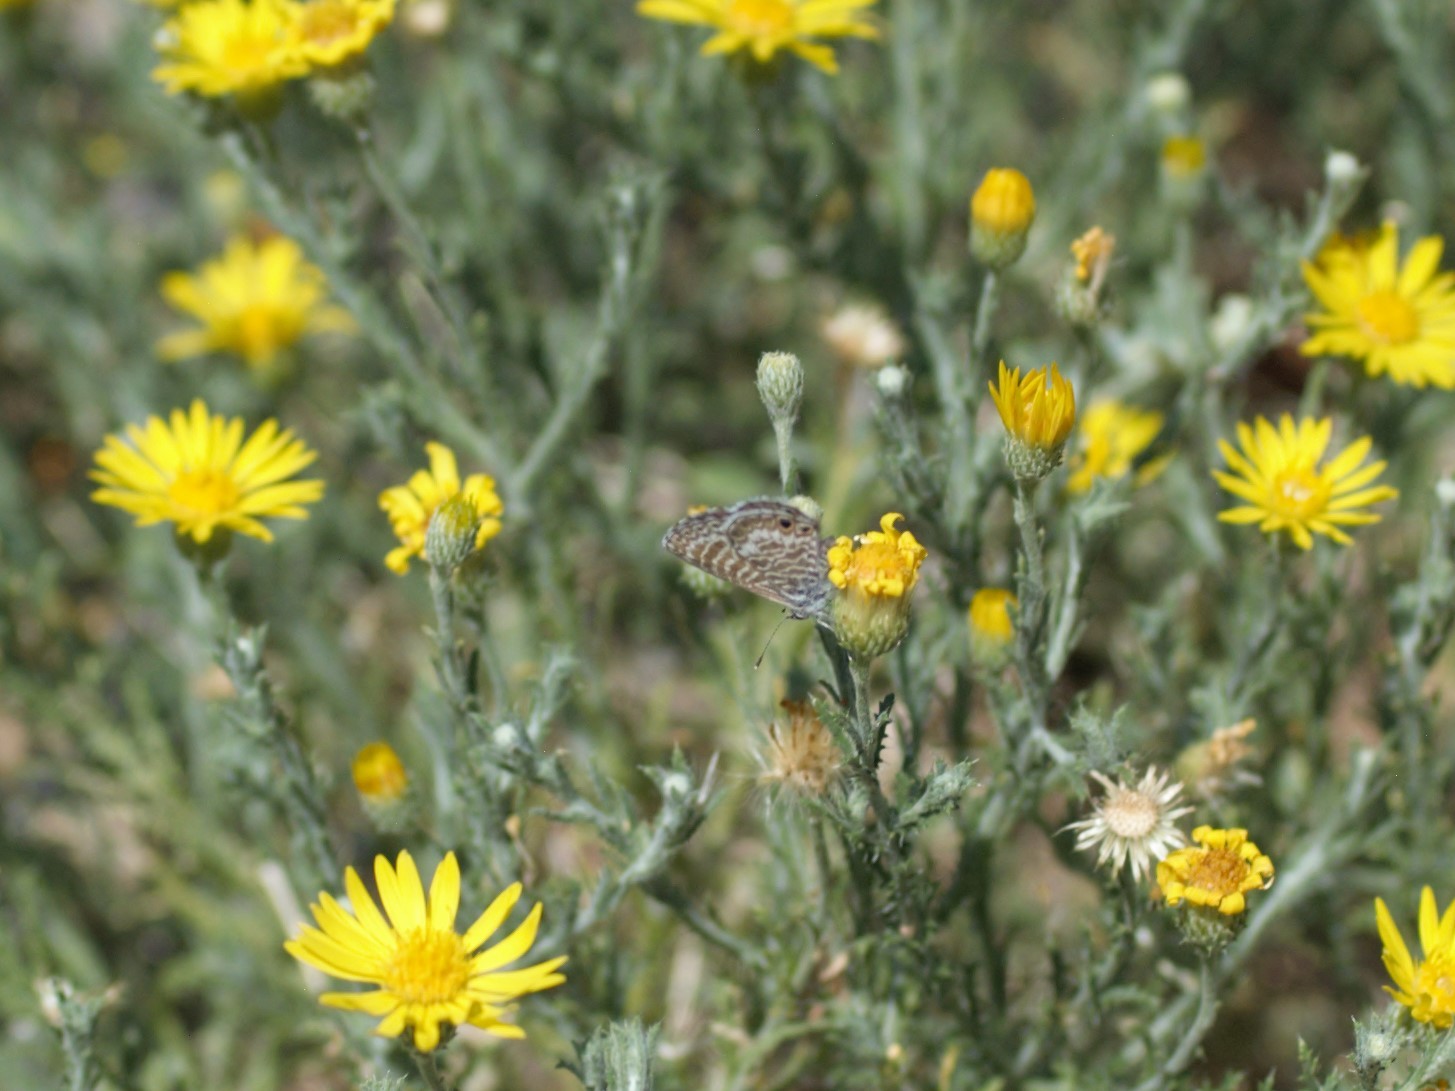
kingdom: Animalia
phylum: Arthropoda
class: Insecta
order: Lepidoptera
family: Lycaenidae
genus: Leptotes
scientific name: Leptotes marina
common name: Marine blue
